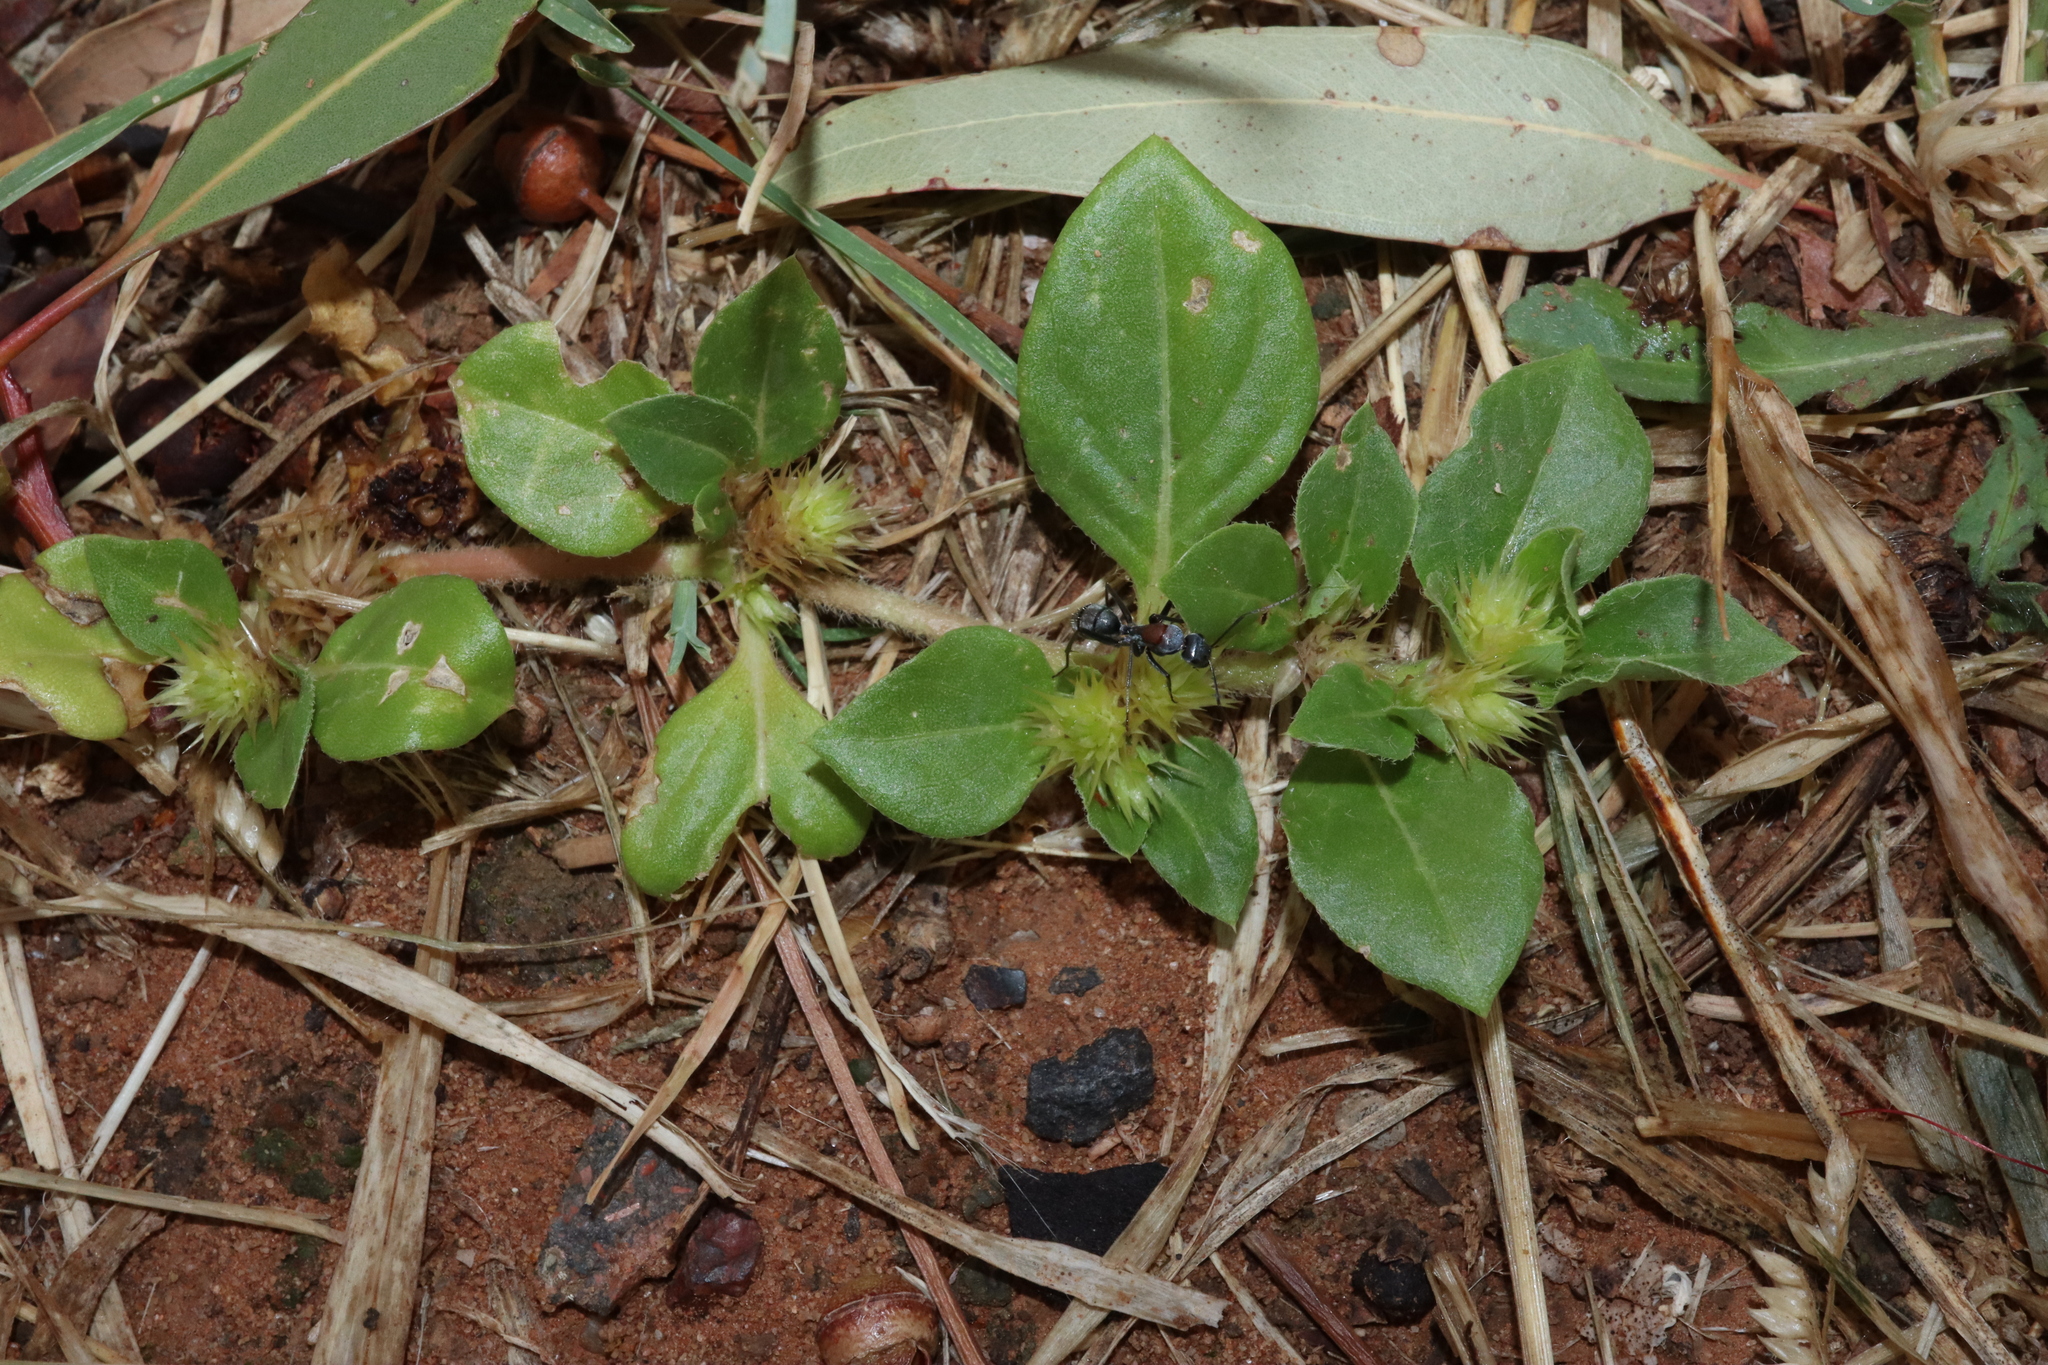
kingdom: Plantae
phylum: Tracheophyta
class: Magnoliopsida
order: Caryophyllales
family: Amaranthaceae
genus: Alternanthera
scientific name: Alternanthera pungens
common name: Khakiweed
